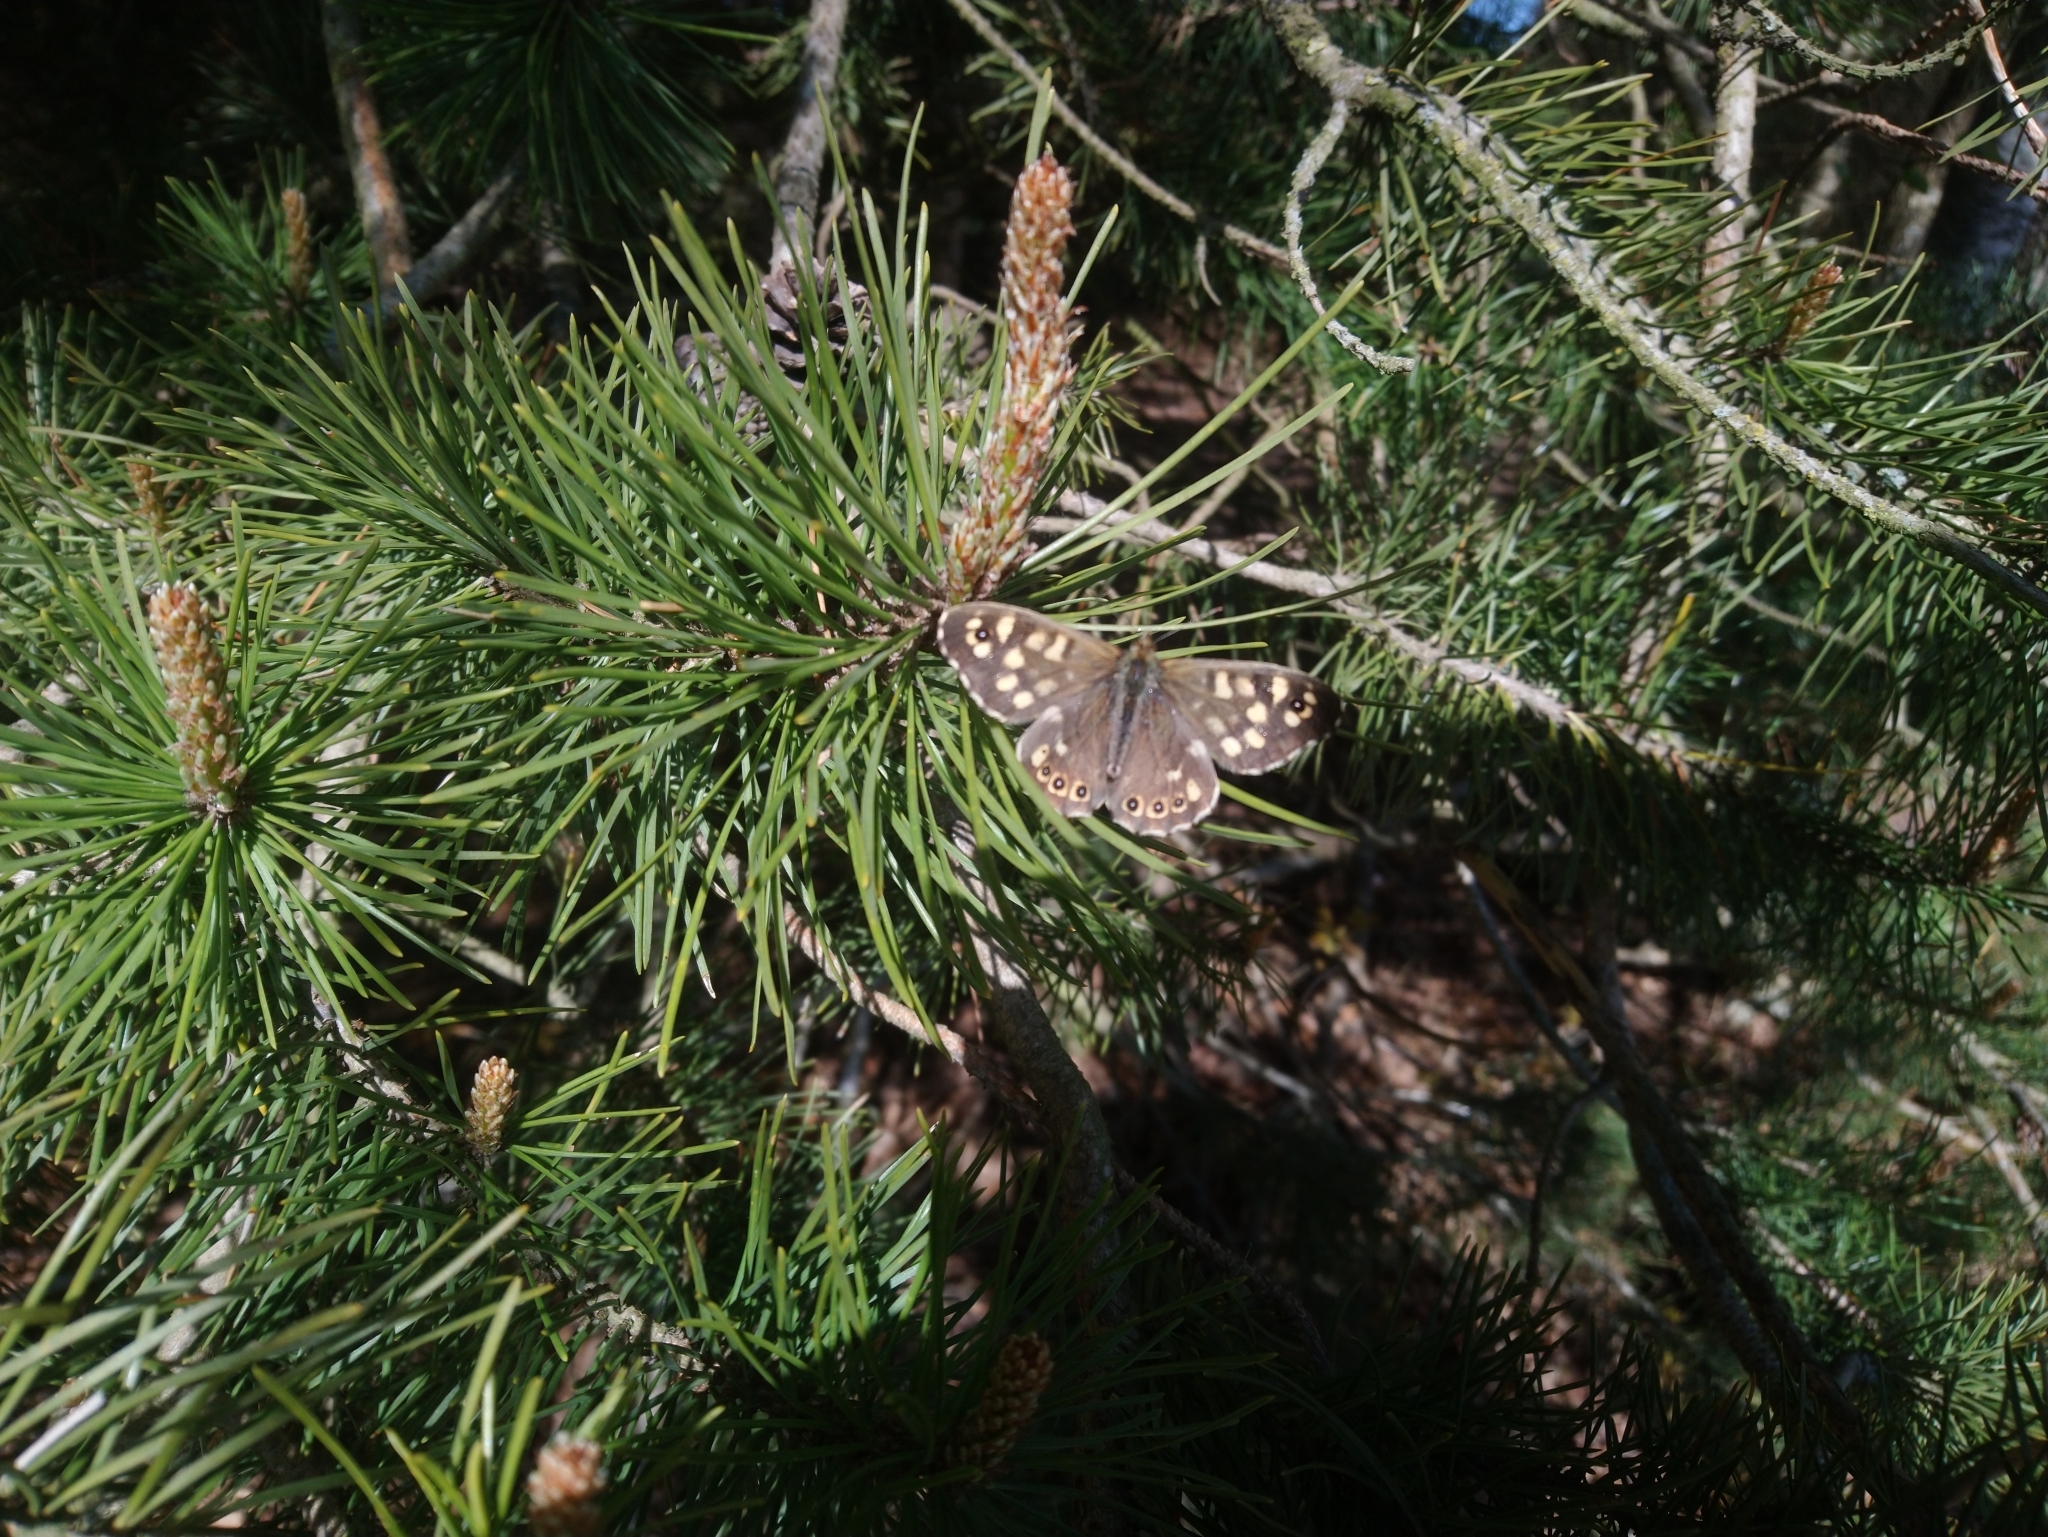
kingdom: Animalia
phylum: Arthropoda
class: Insecta
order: Lepidoptera
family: Nymphalidae
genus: Pararge
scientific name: Pararge aegeria
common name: Speckled wood
